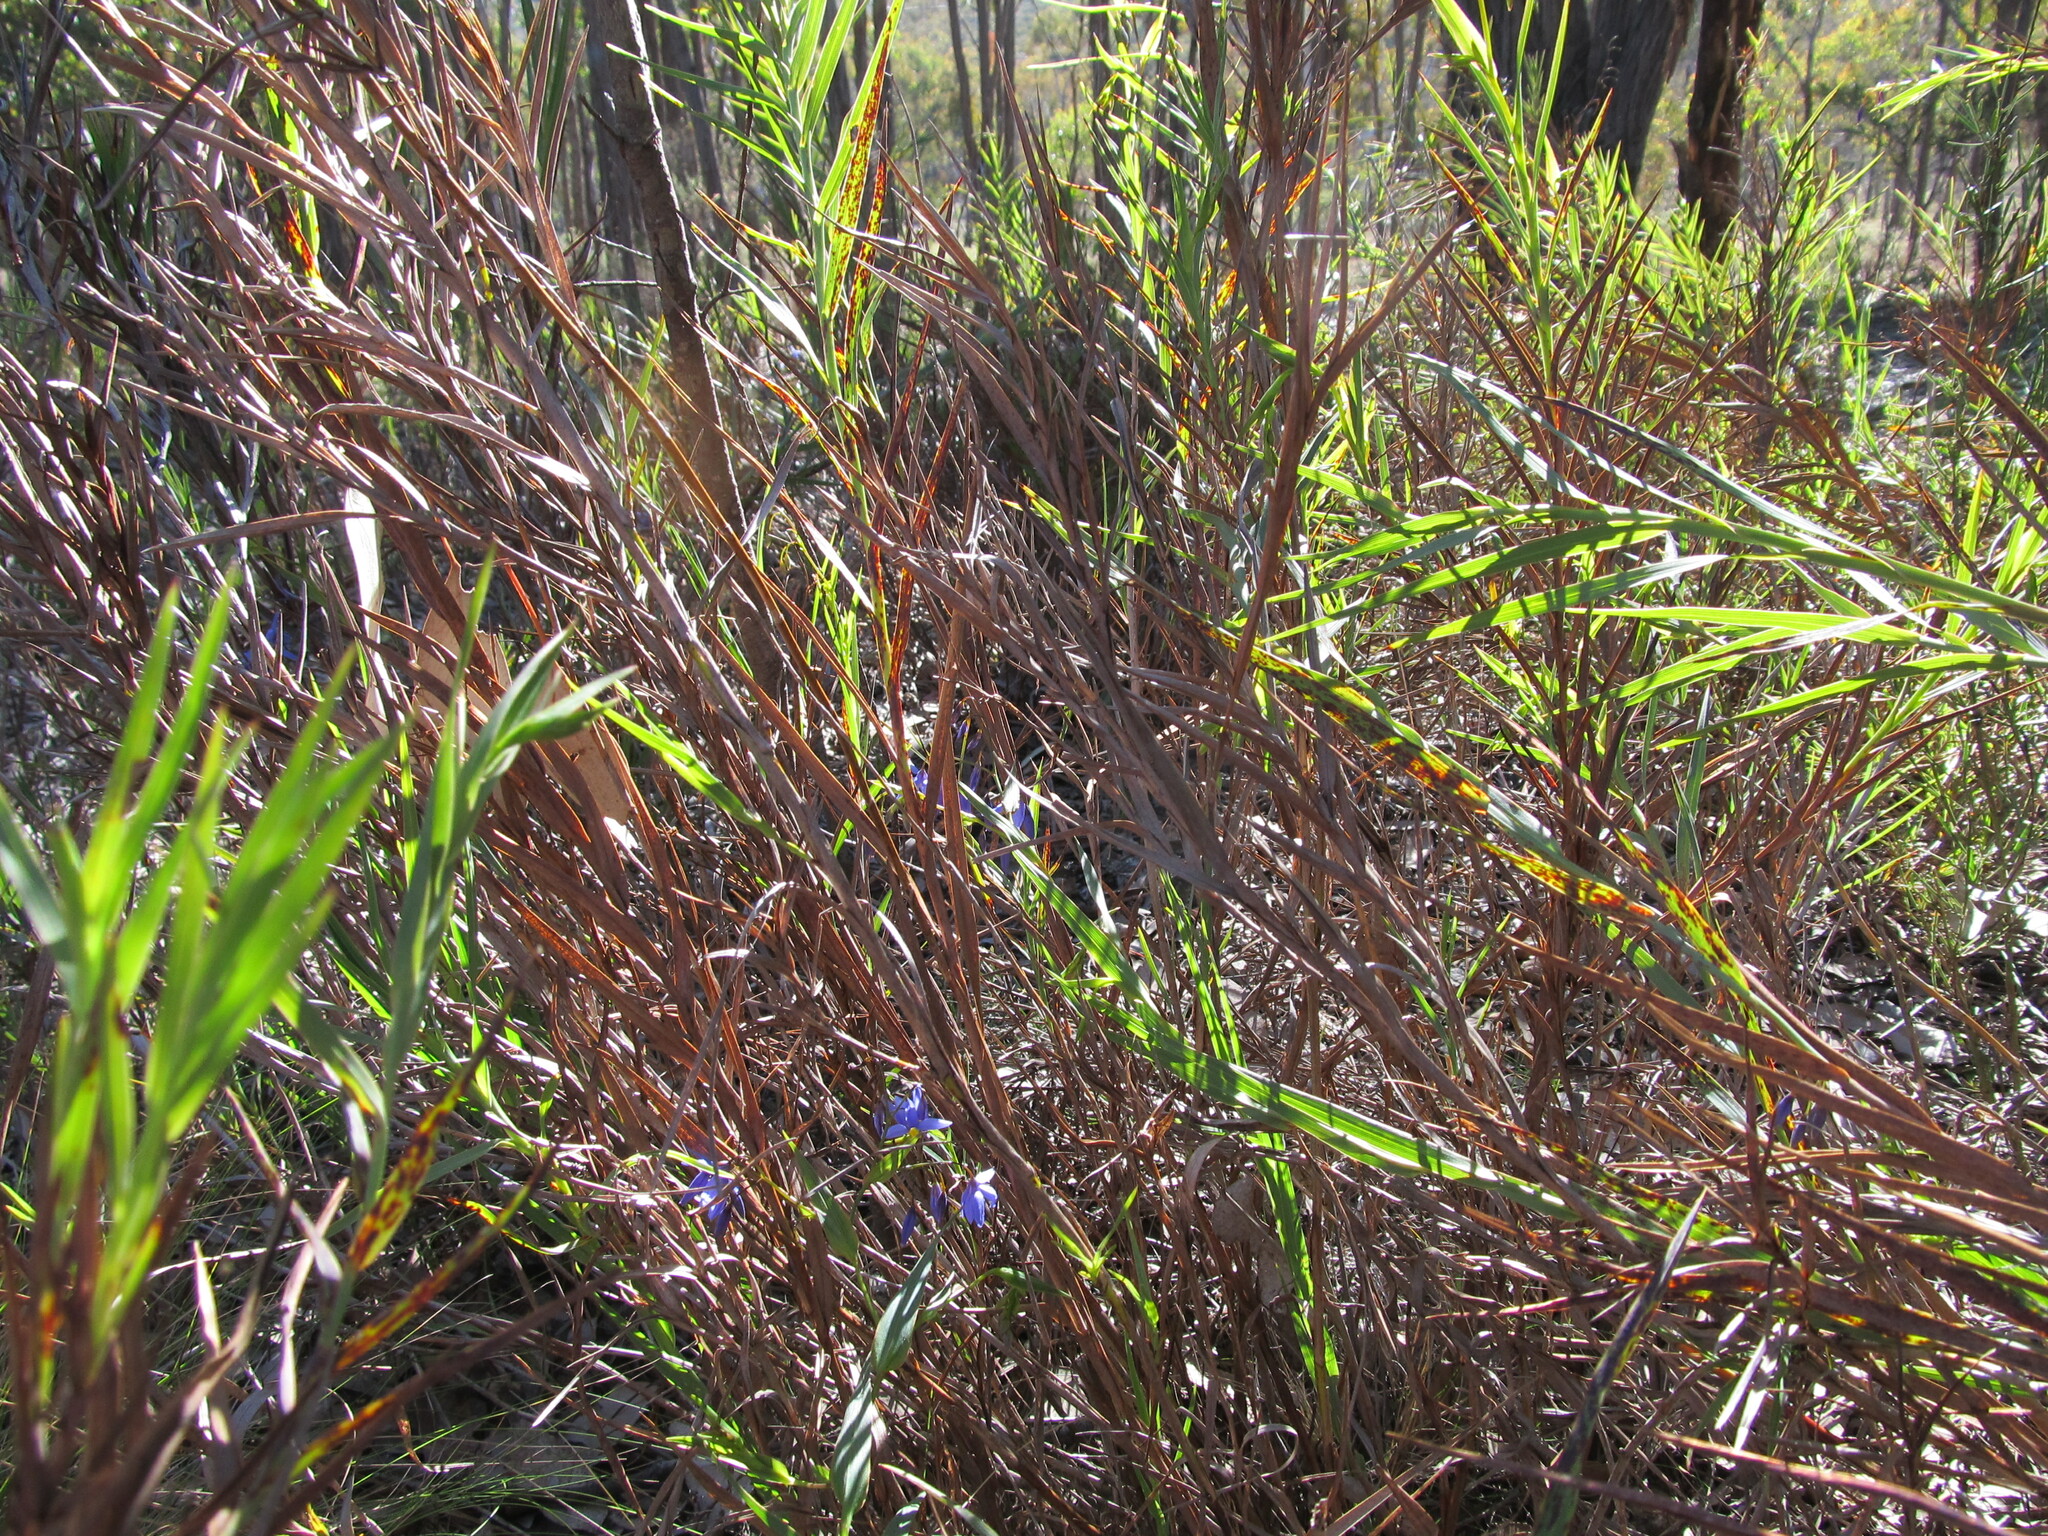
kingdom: Plantae
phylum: Tracheophyta
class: Liliopsida
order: Asparagales
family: Asphodelaceae
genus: Stypandra
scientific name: Stypandra glauca
